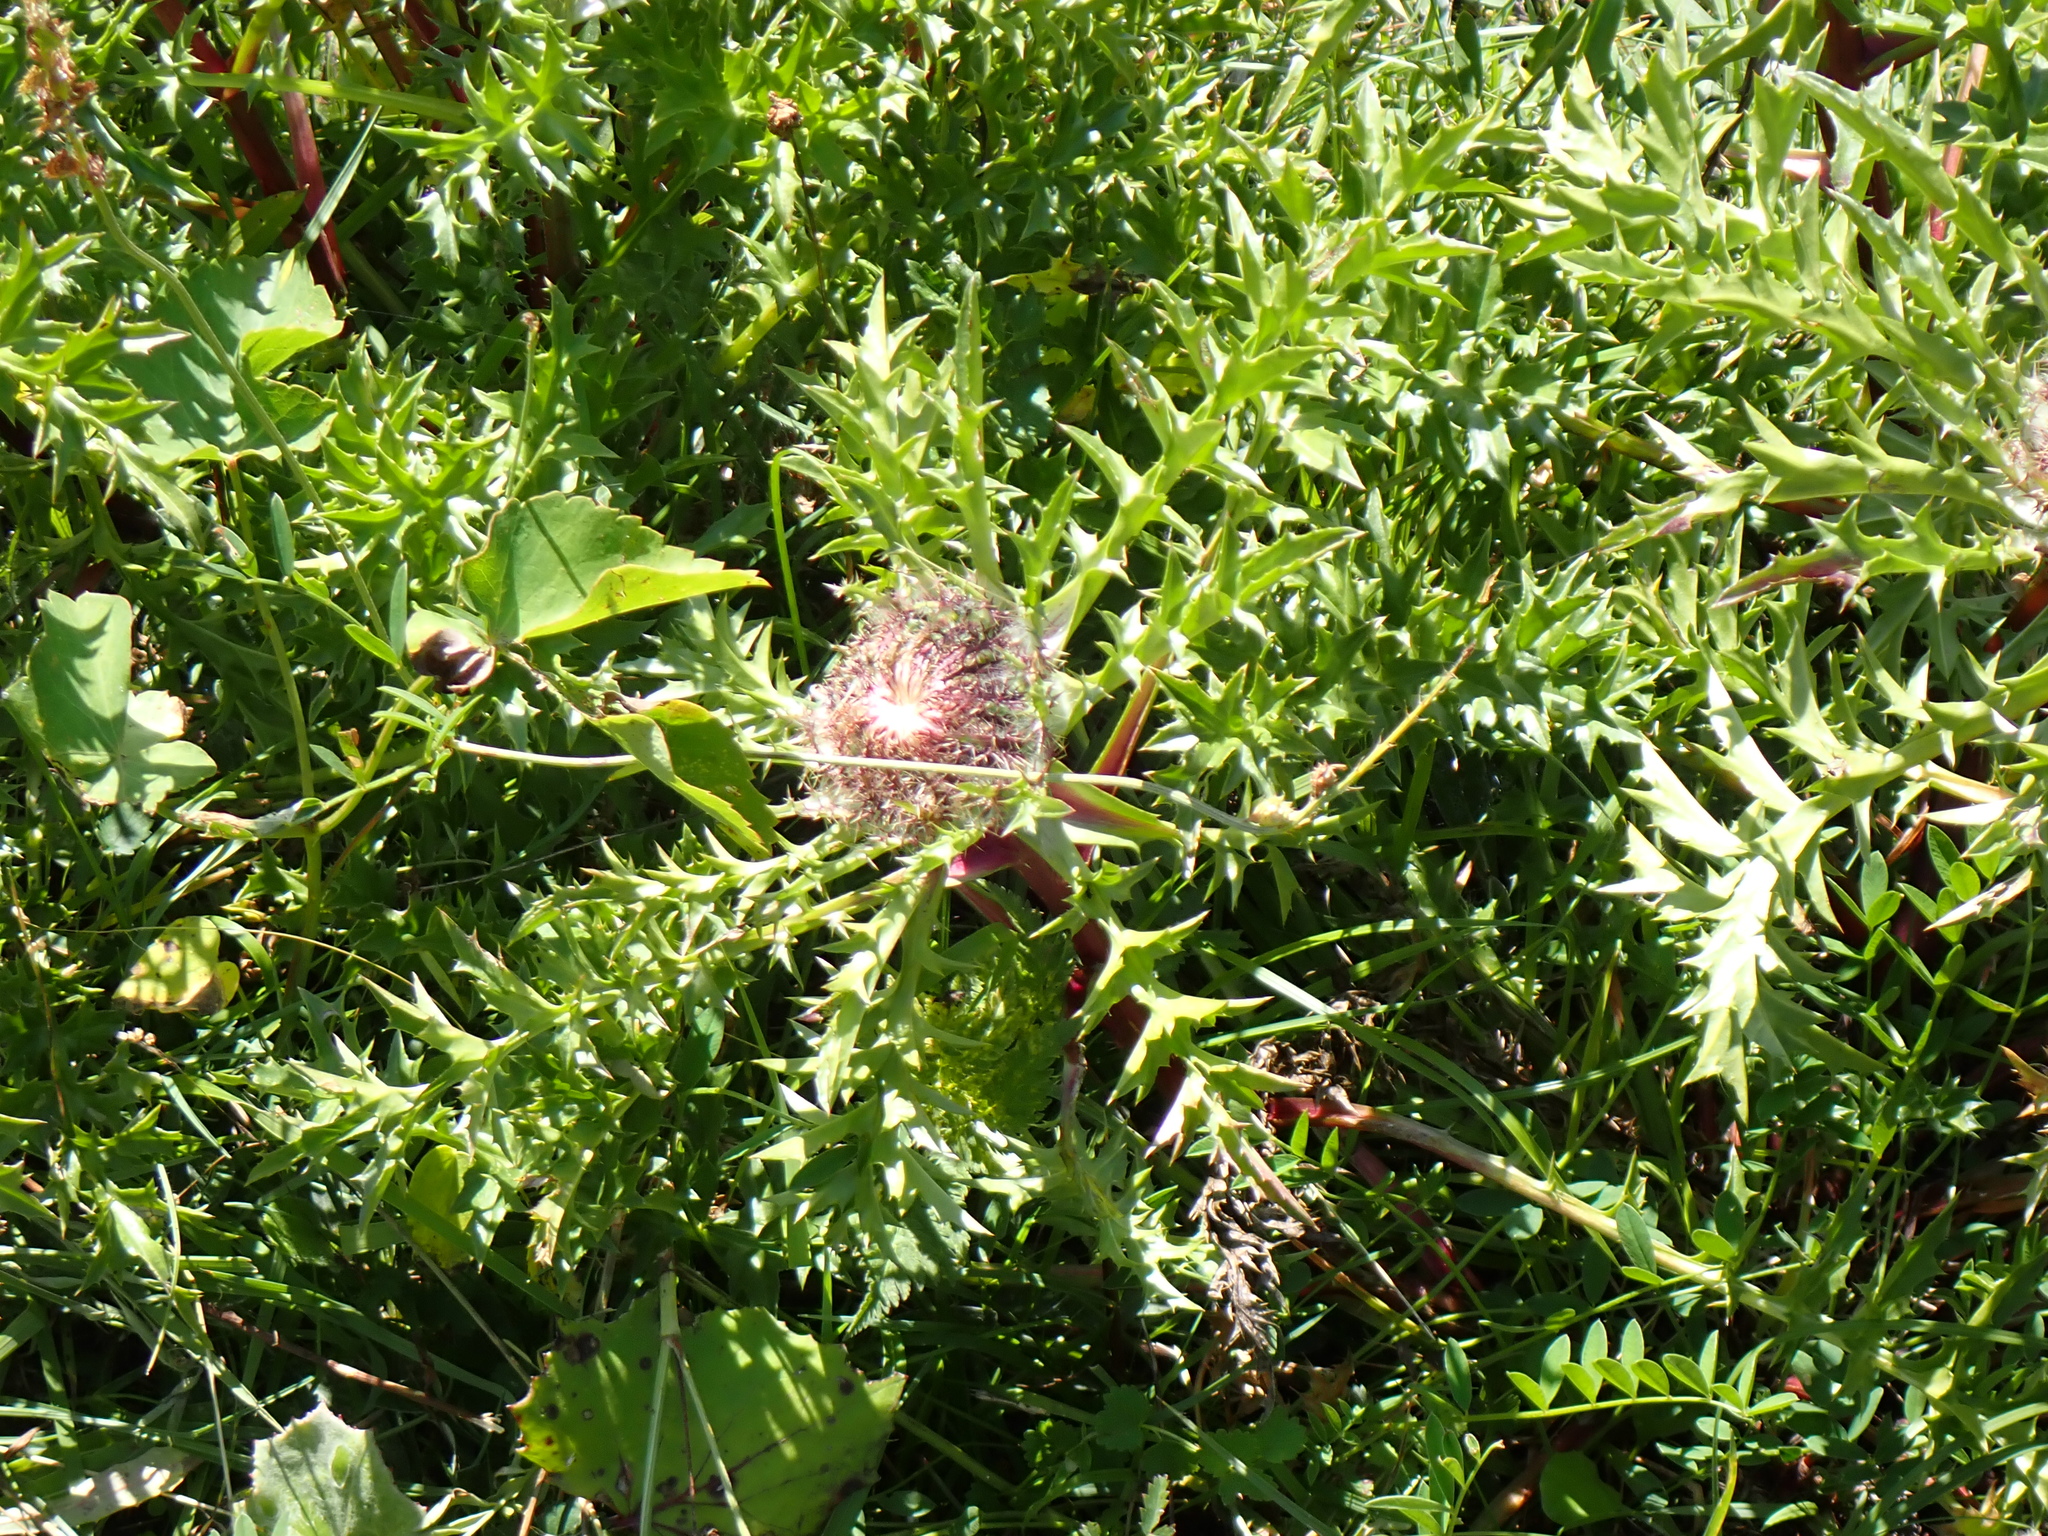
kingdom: Plantae
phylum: Tracheophyta
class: Magnoliopsida
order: Asterales
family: Asteraceae
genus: Carlina
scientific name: Carlina acaulis
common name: Stemless carline thistle
